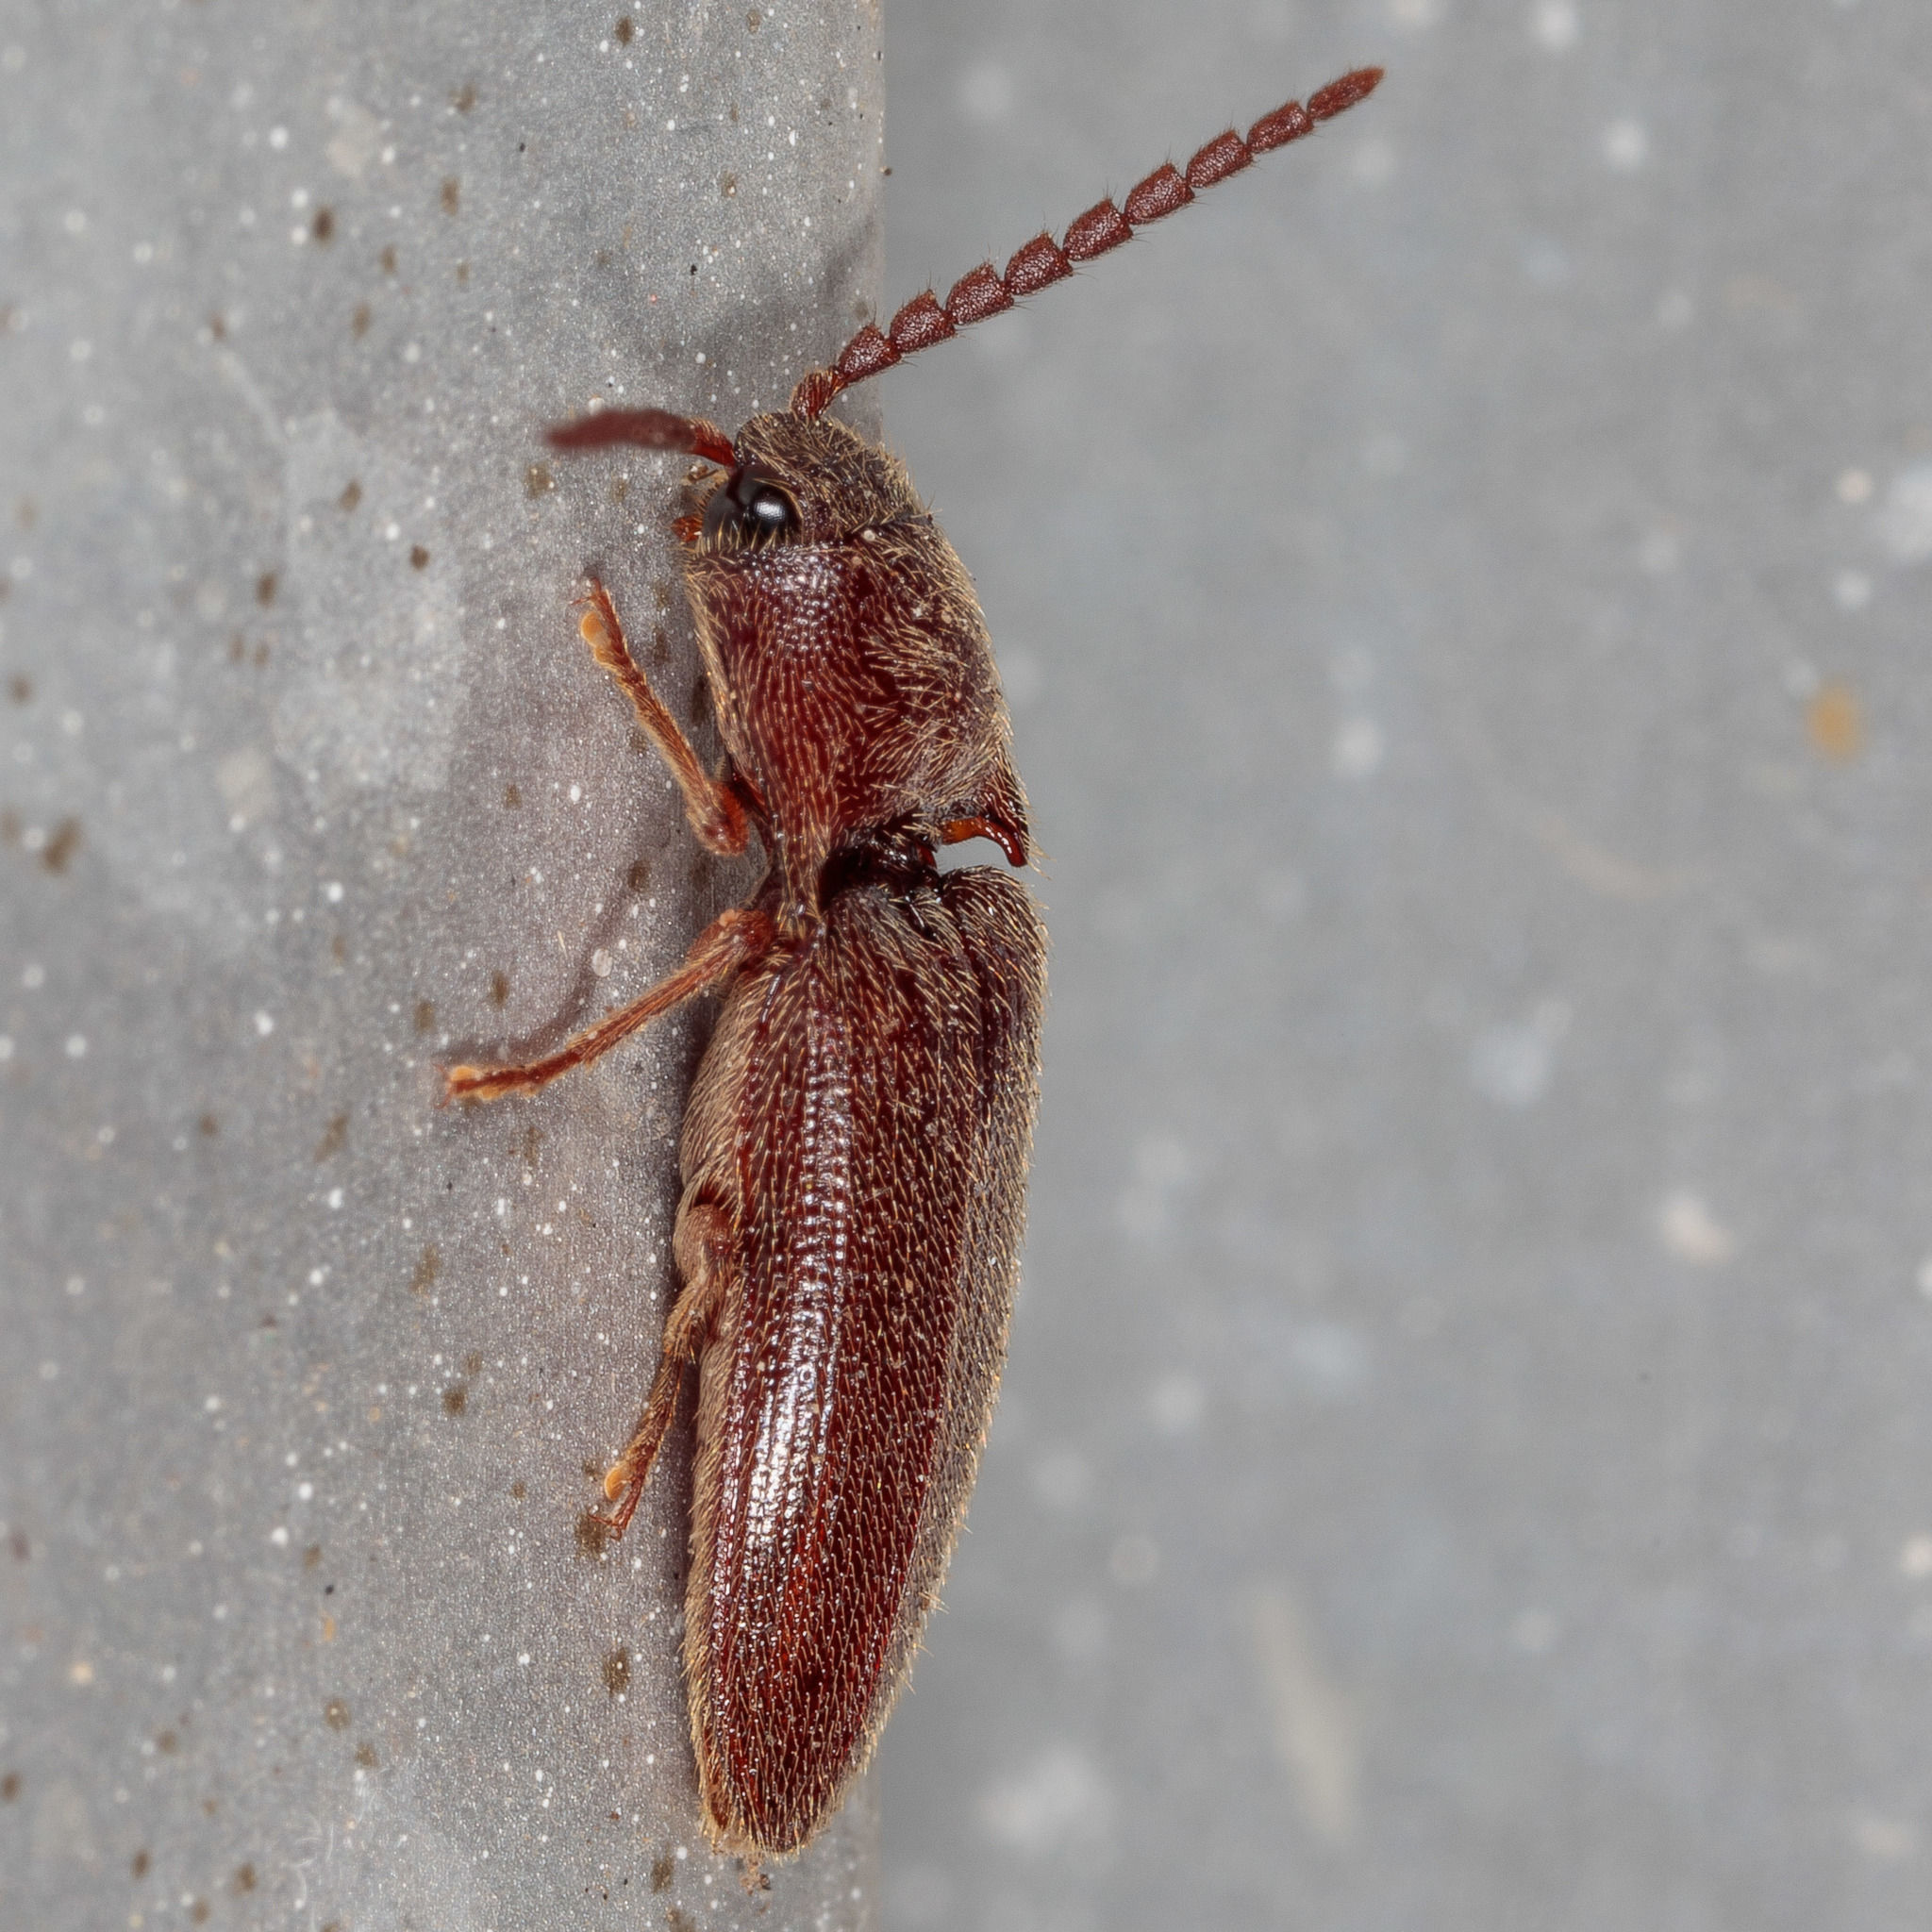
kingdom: Animalia
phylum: Arthropoda
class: Insecta
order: Coleoptera
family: Elateridae
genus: Dipropus
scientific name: Dipropus
